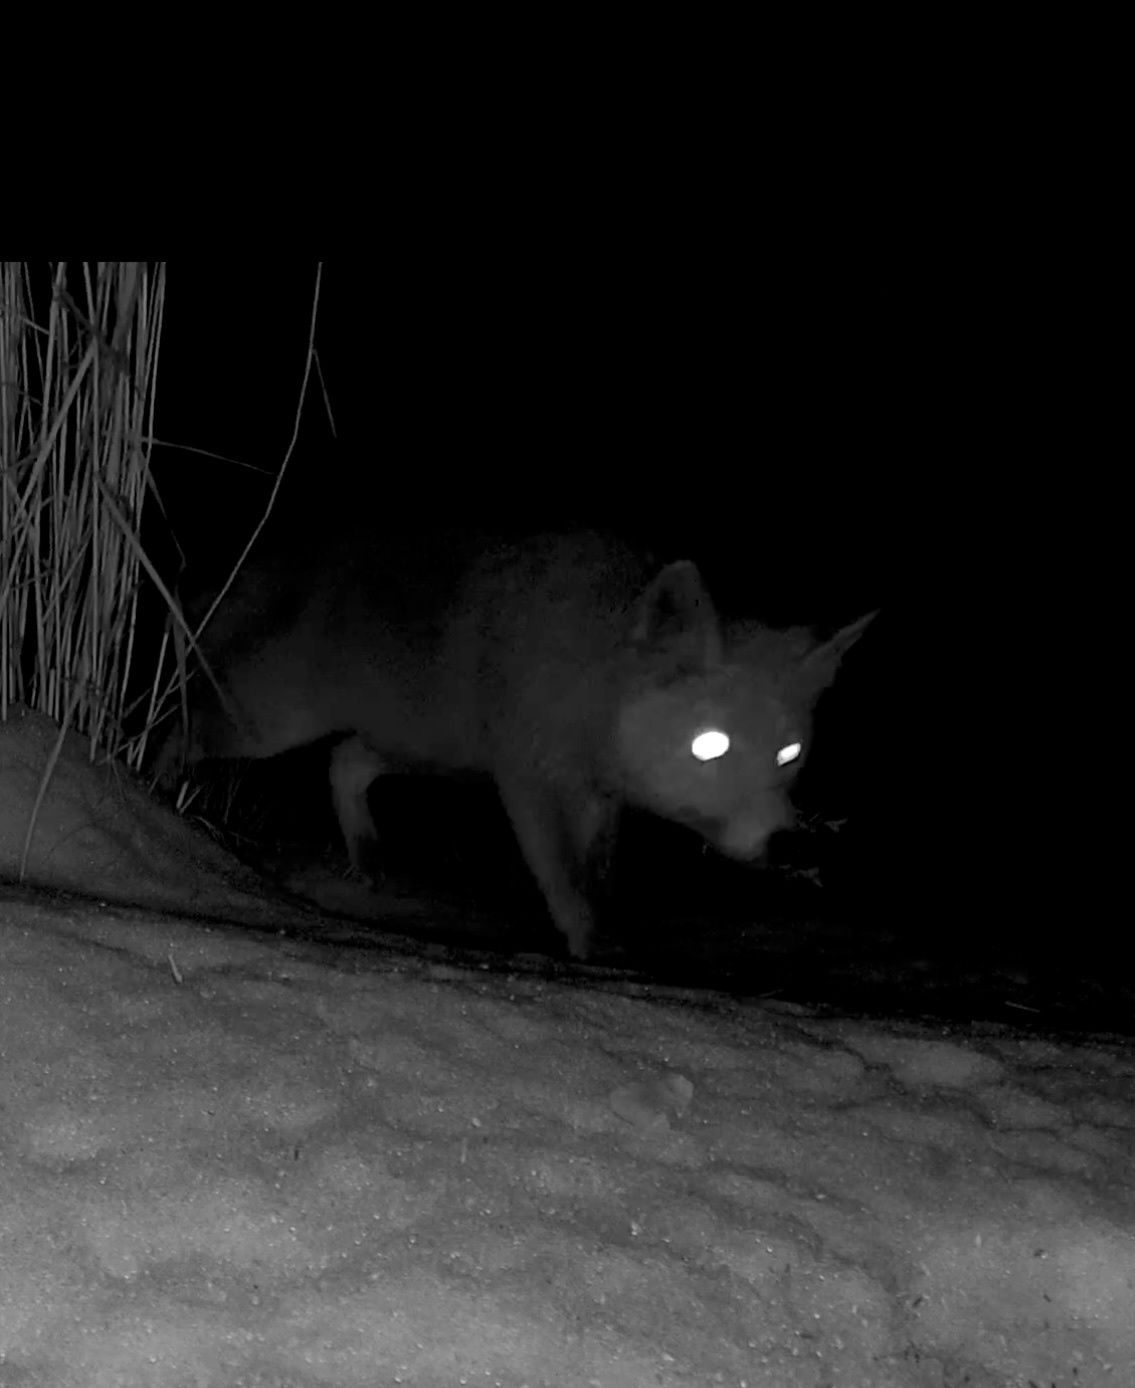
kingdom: Animalia
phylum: Chordata
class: Mammalia
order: Carnivora
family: Canidae
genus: Vulpes
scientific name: Vulpes vulpes
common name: Red fox
